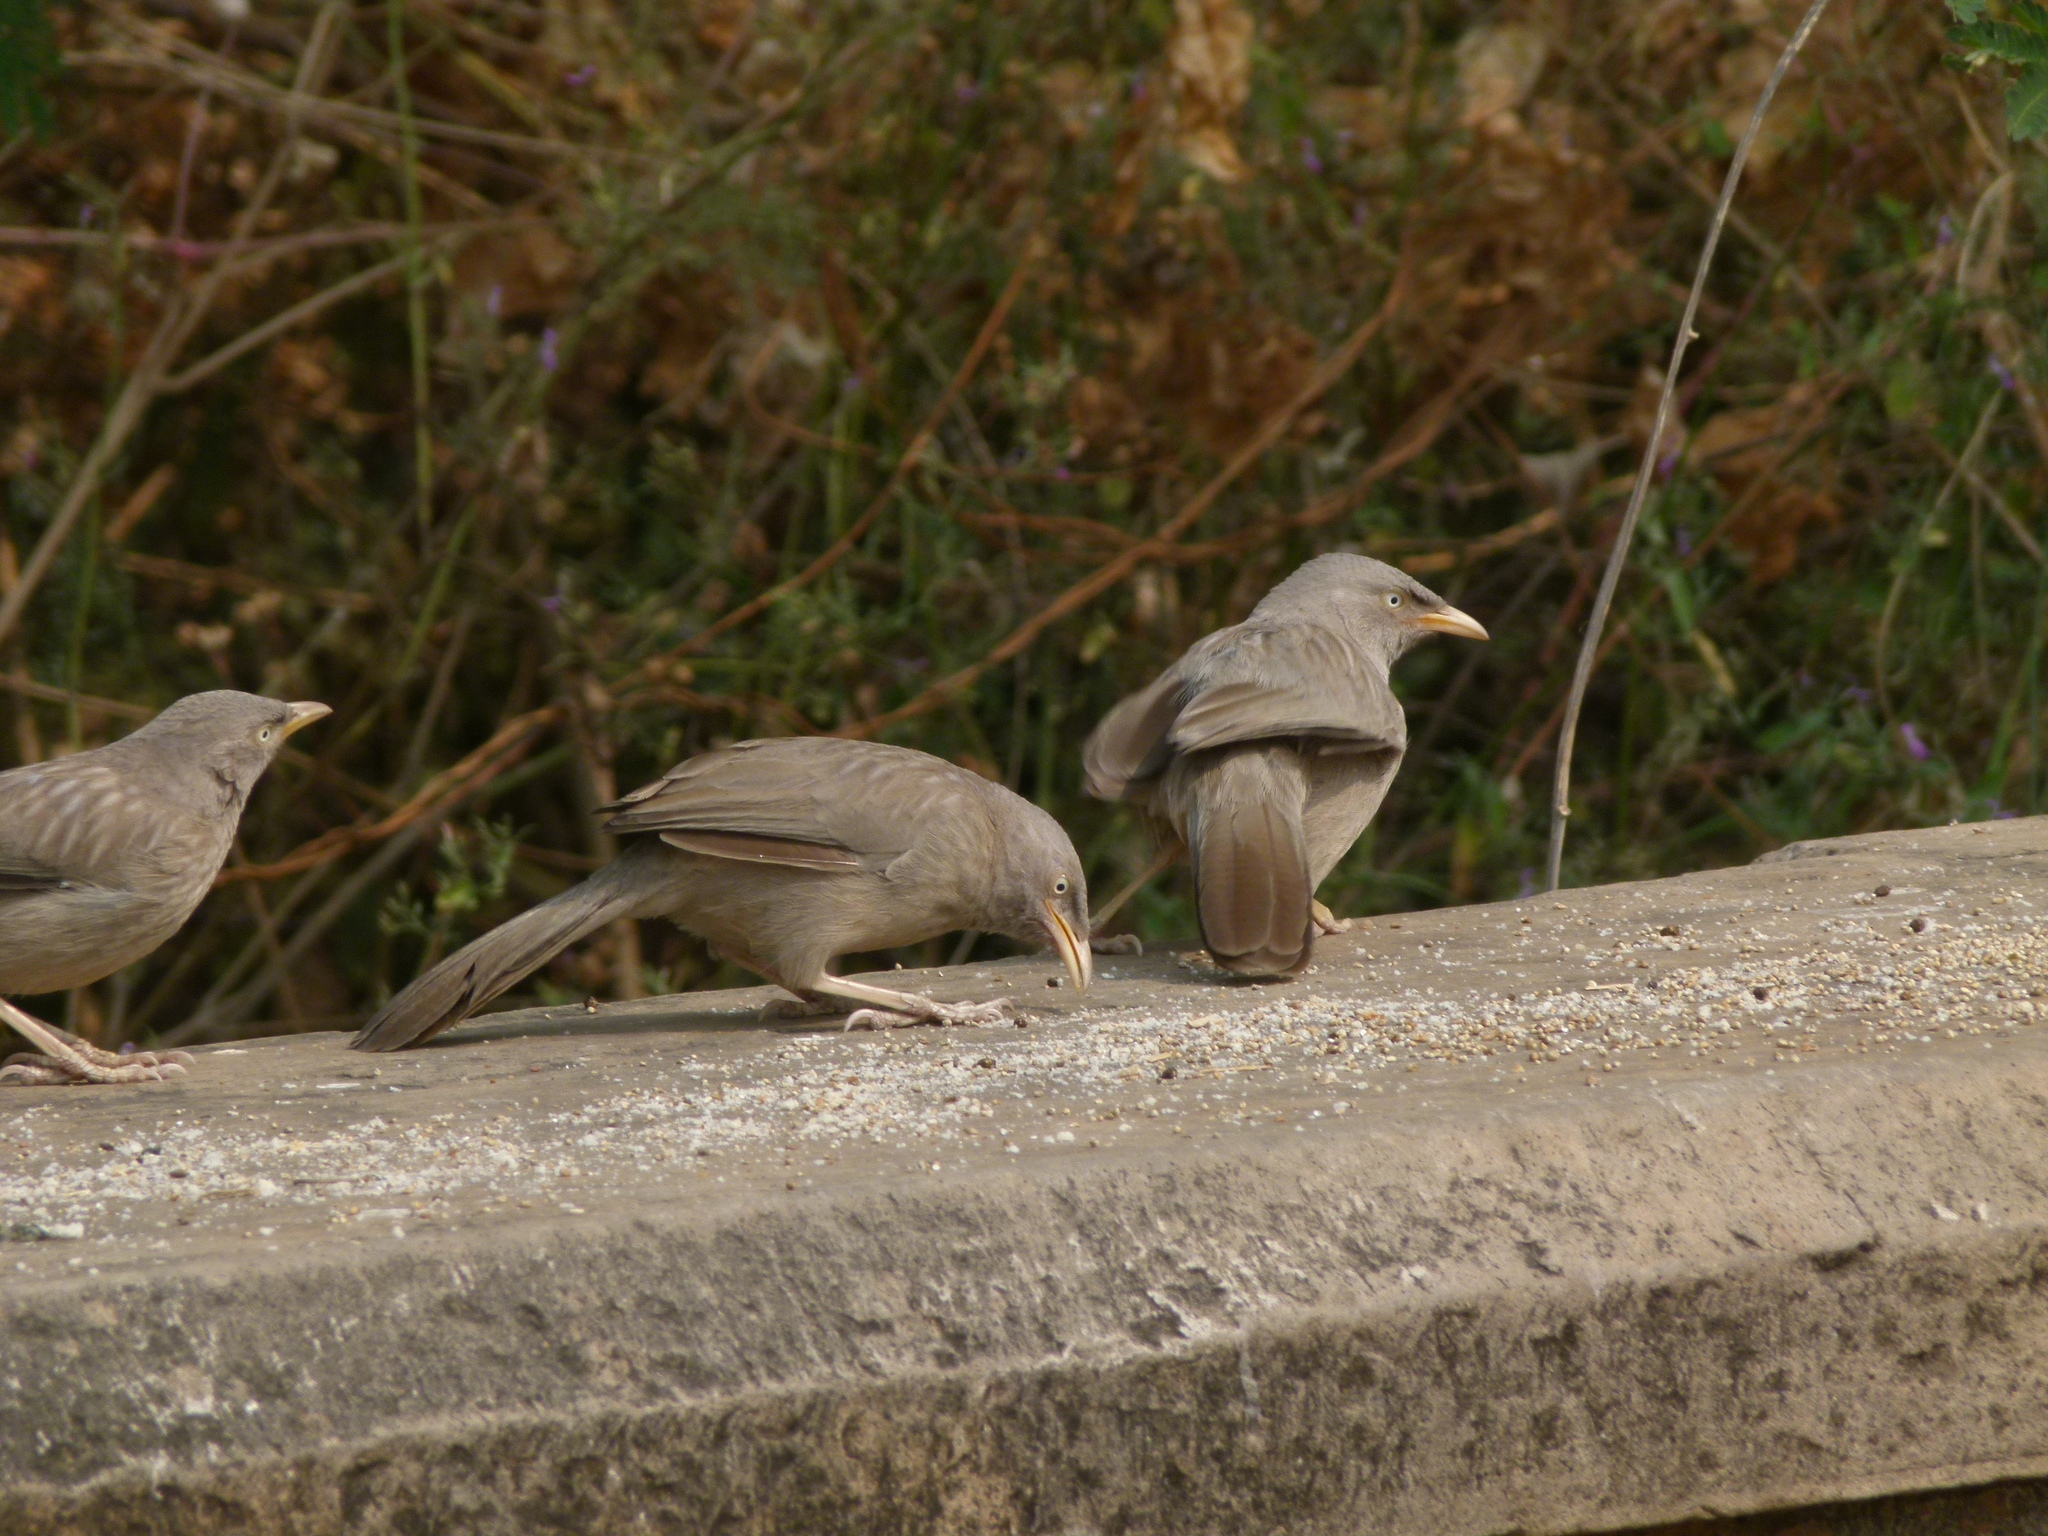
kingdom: Animalia
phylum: Chordata
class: Aves
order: Passeriformes
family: Leiothrichidae
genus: Turdoides
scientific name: Turdoides striata
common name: Jungle babbler
